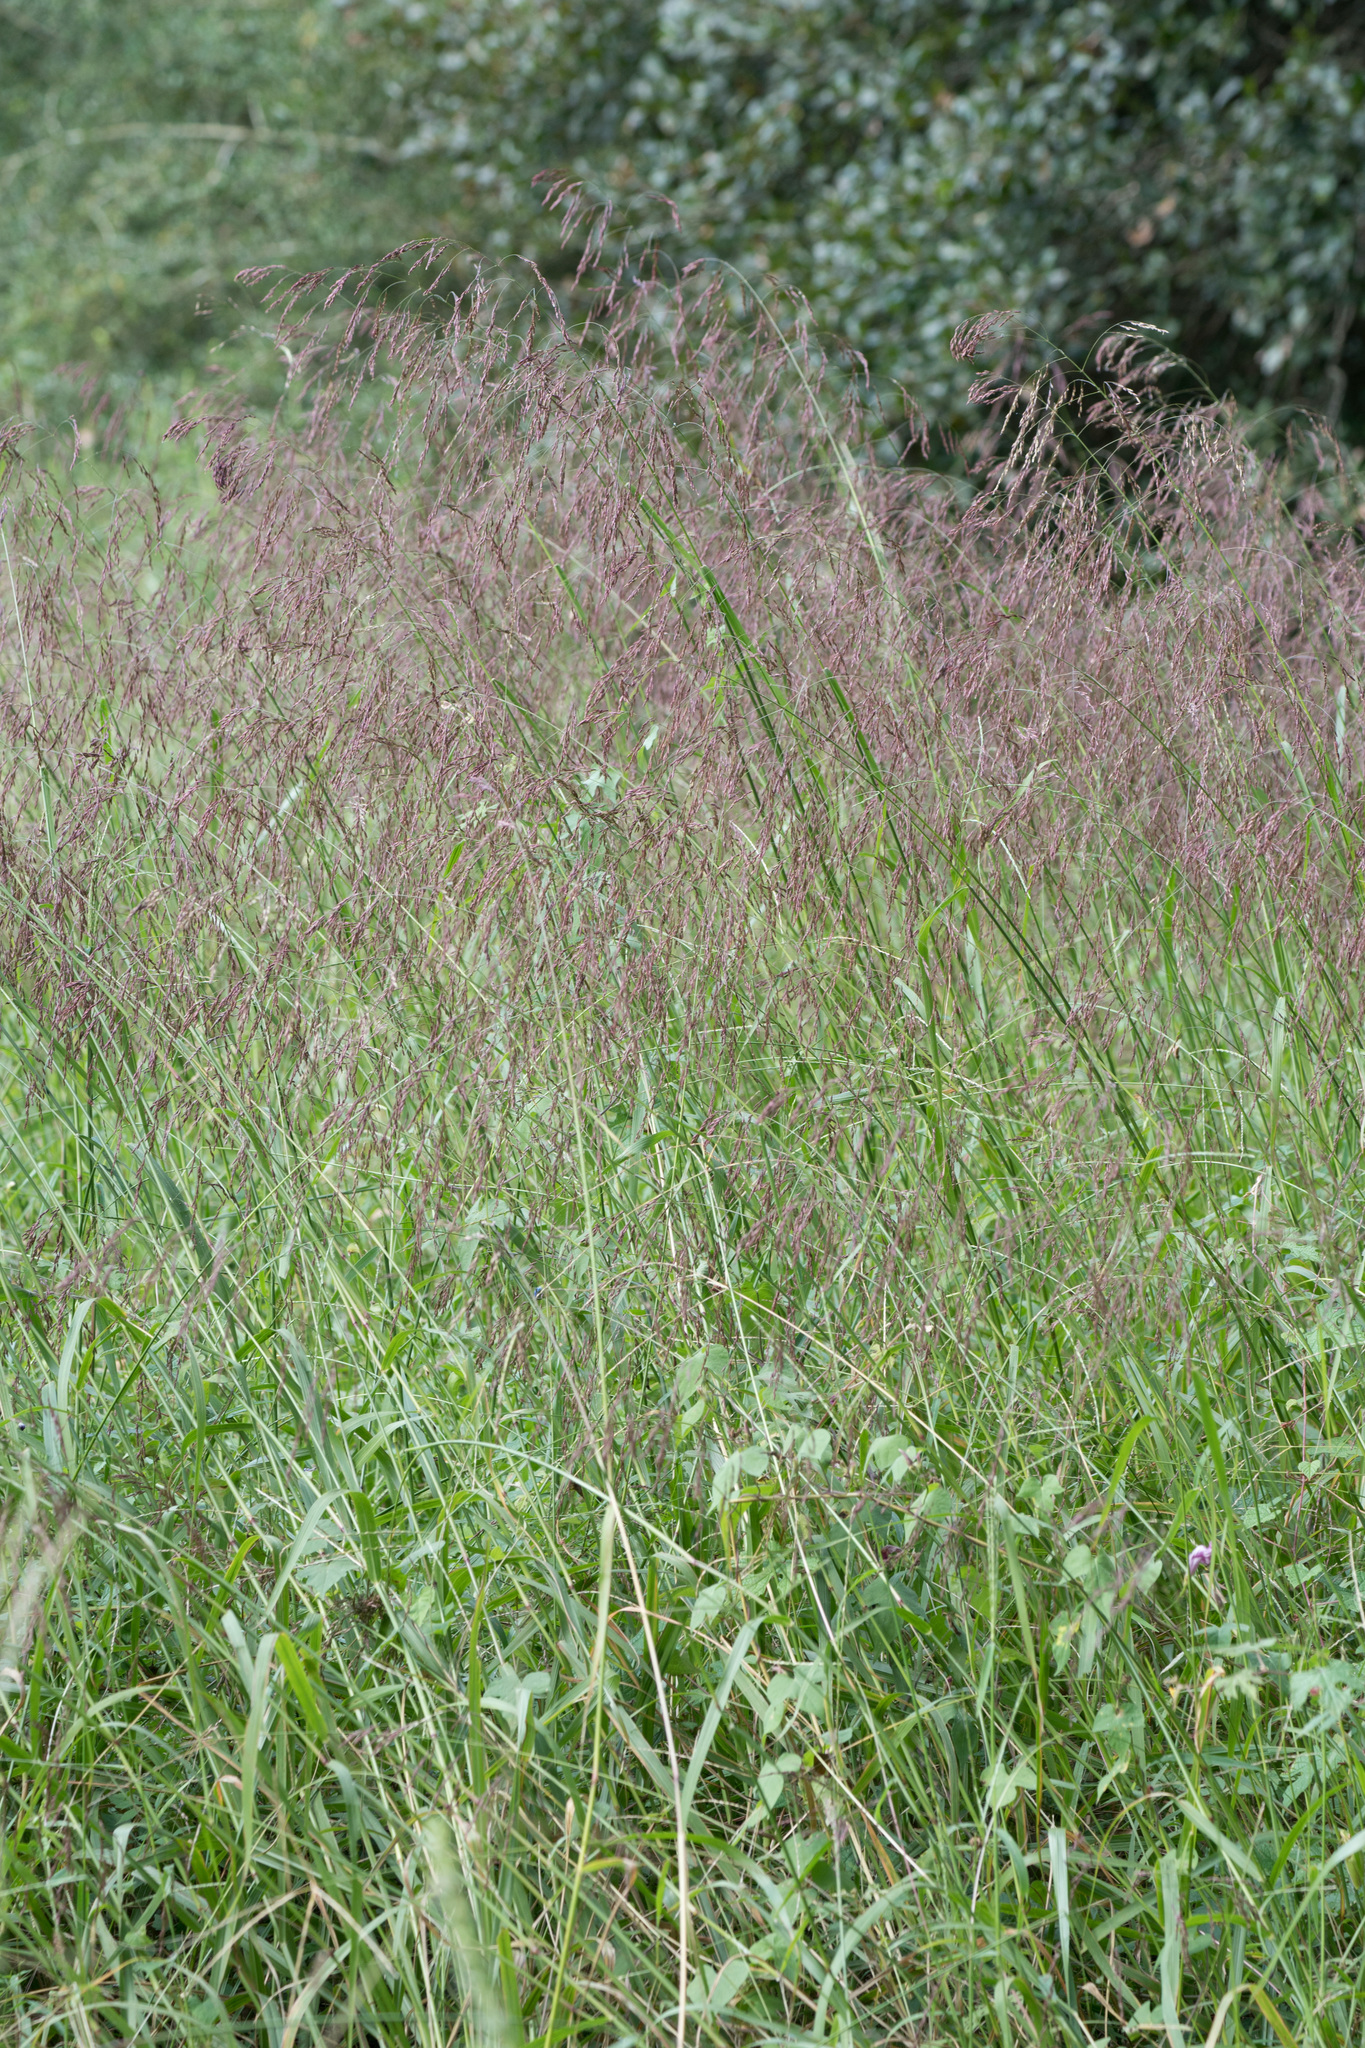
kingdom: Plantae
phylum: Tracheophyta
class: Liliopsida
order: Poales
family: Poaceae
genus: Tridens
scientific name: Tridens flavus
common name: Purpletop
